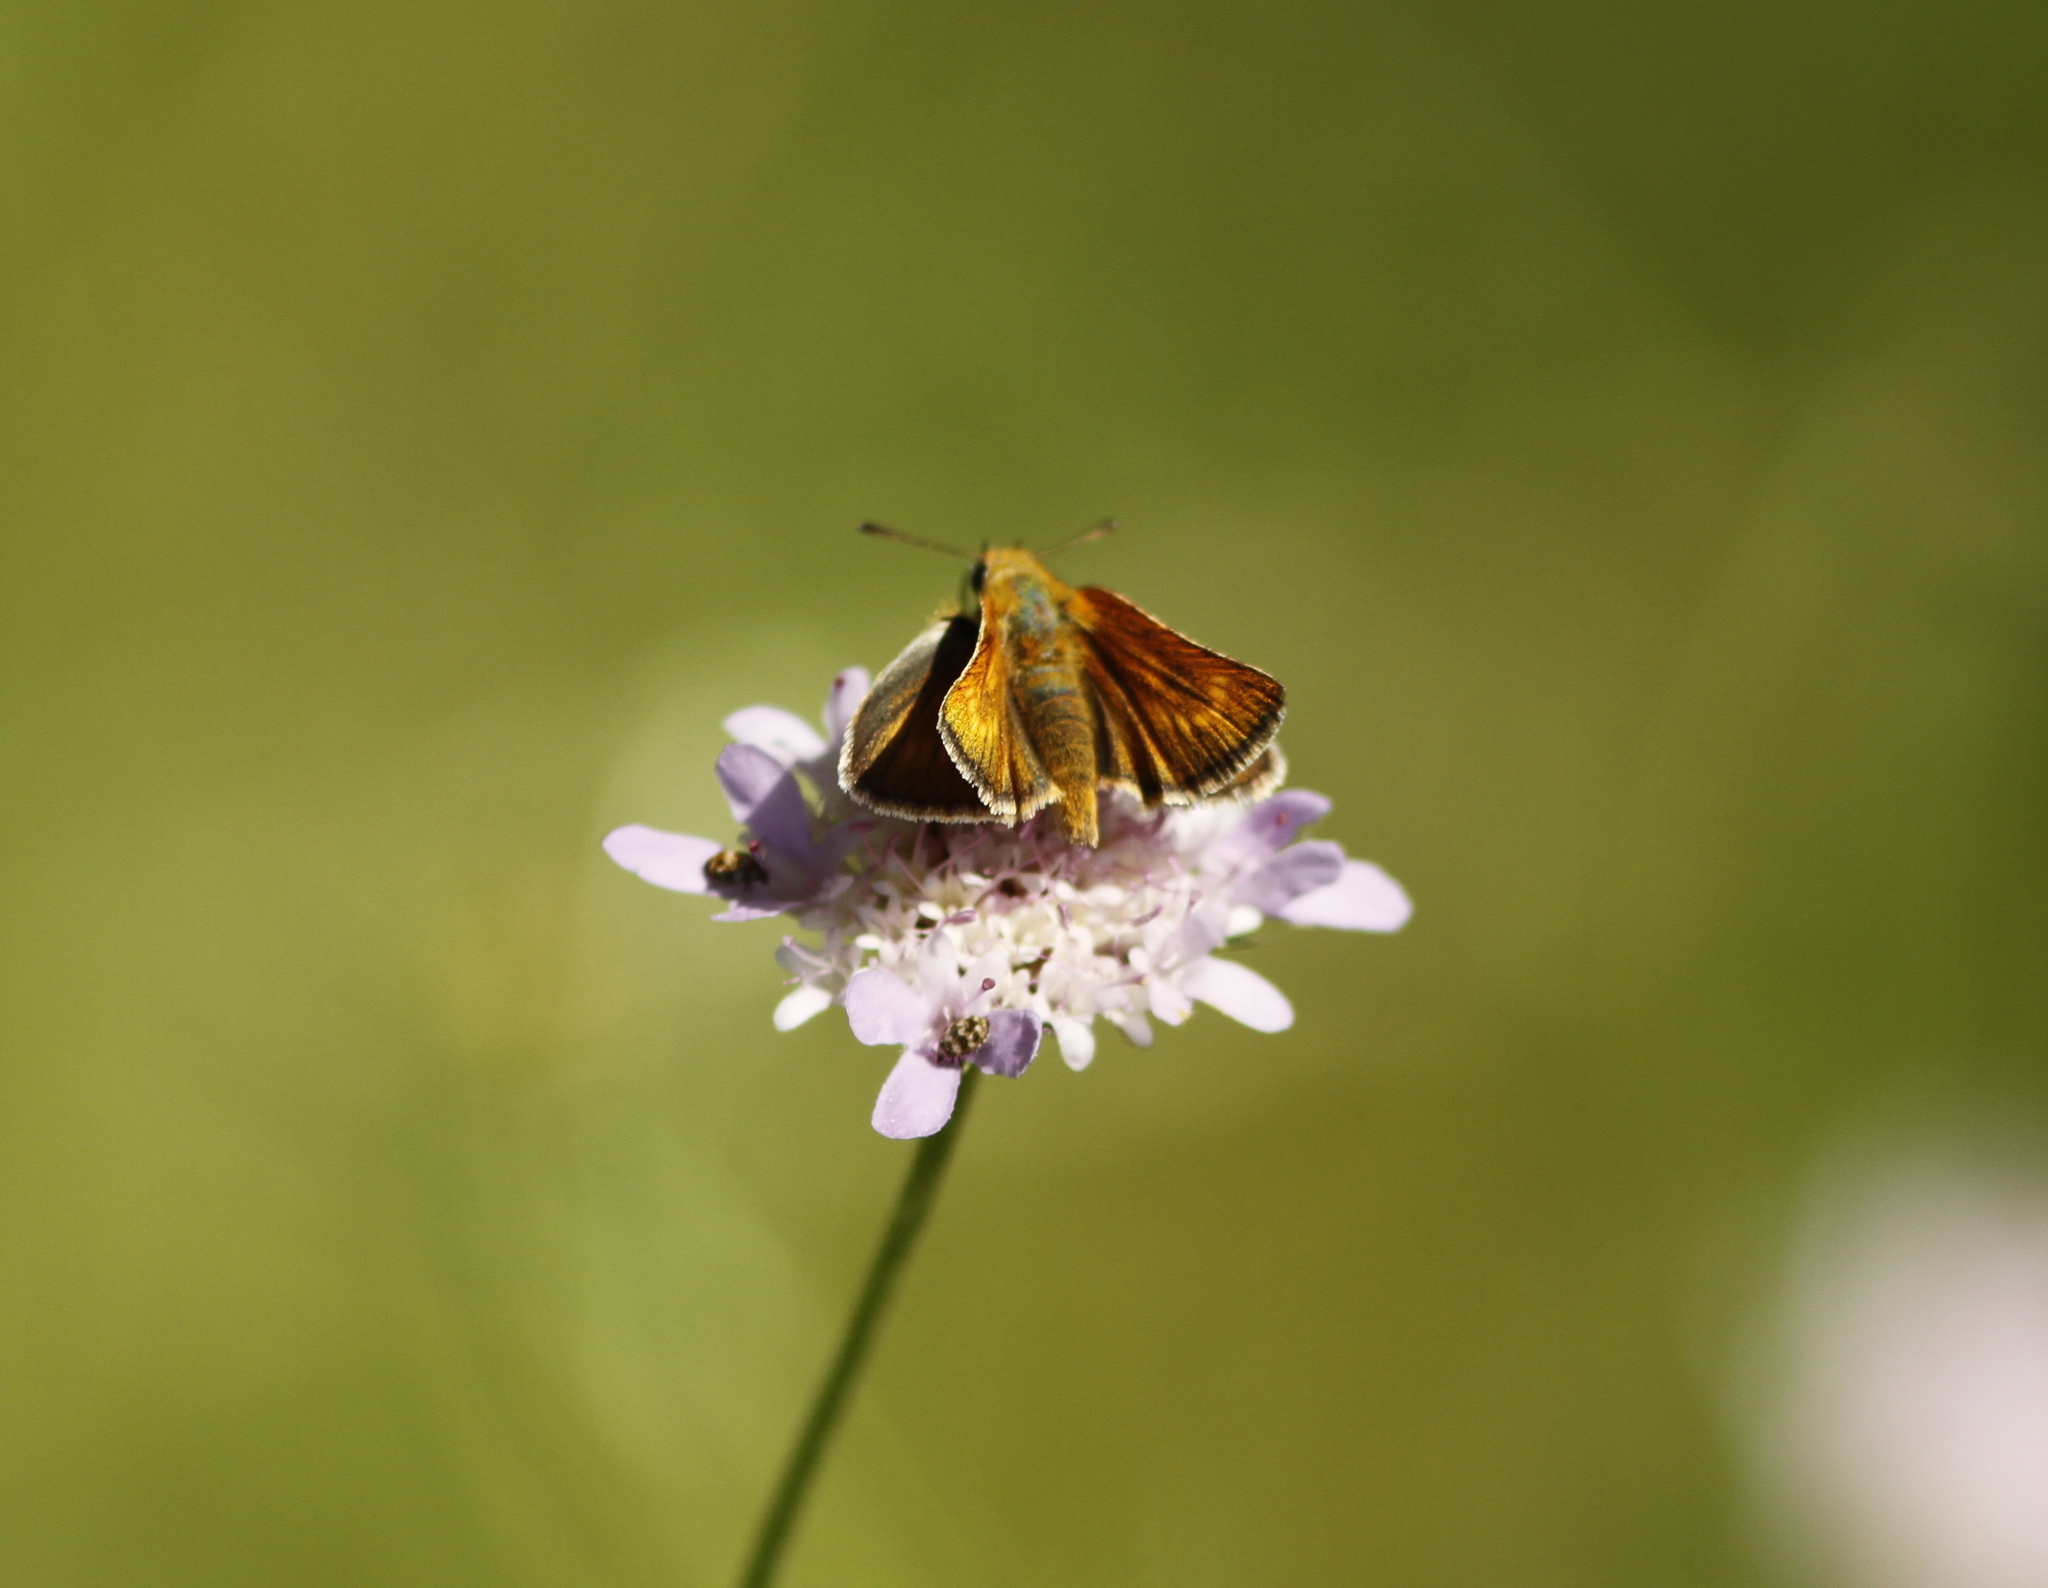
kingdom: Animalia
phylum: Arthropoda
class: Insecta
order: Lepidoptera
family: Hesperiidae
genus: Thymelicus
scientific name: Thymelicus acteon
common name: Lulworth skipper
